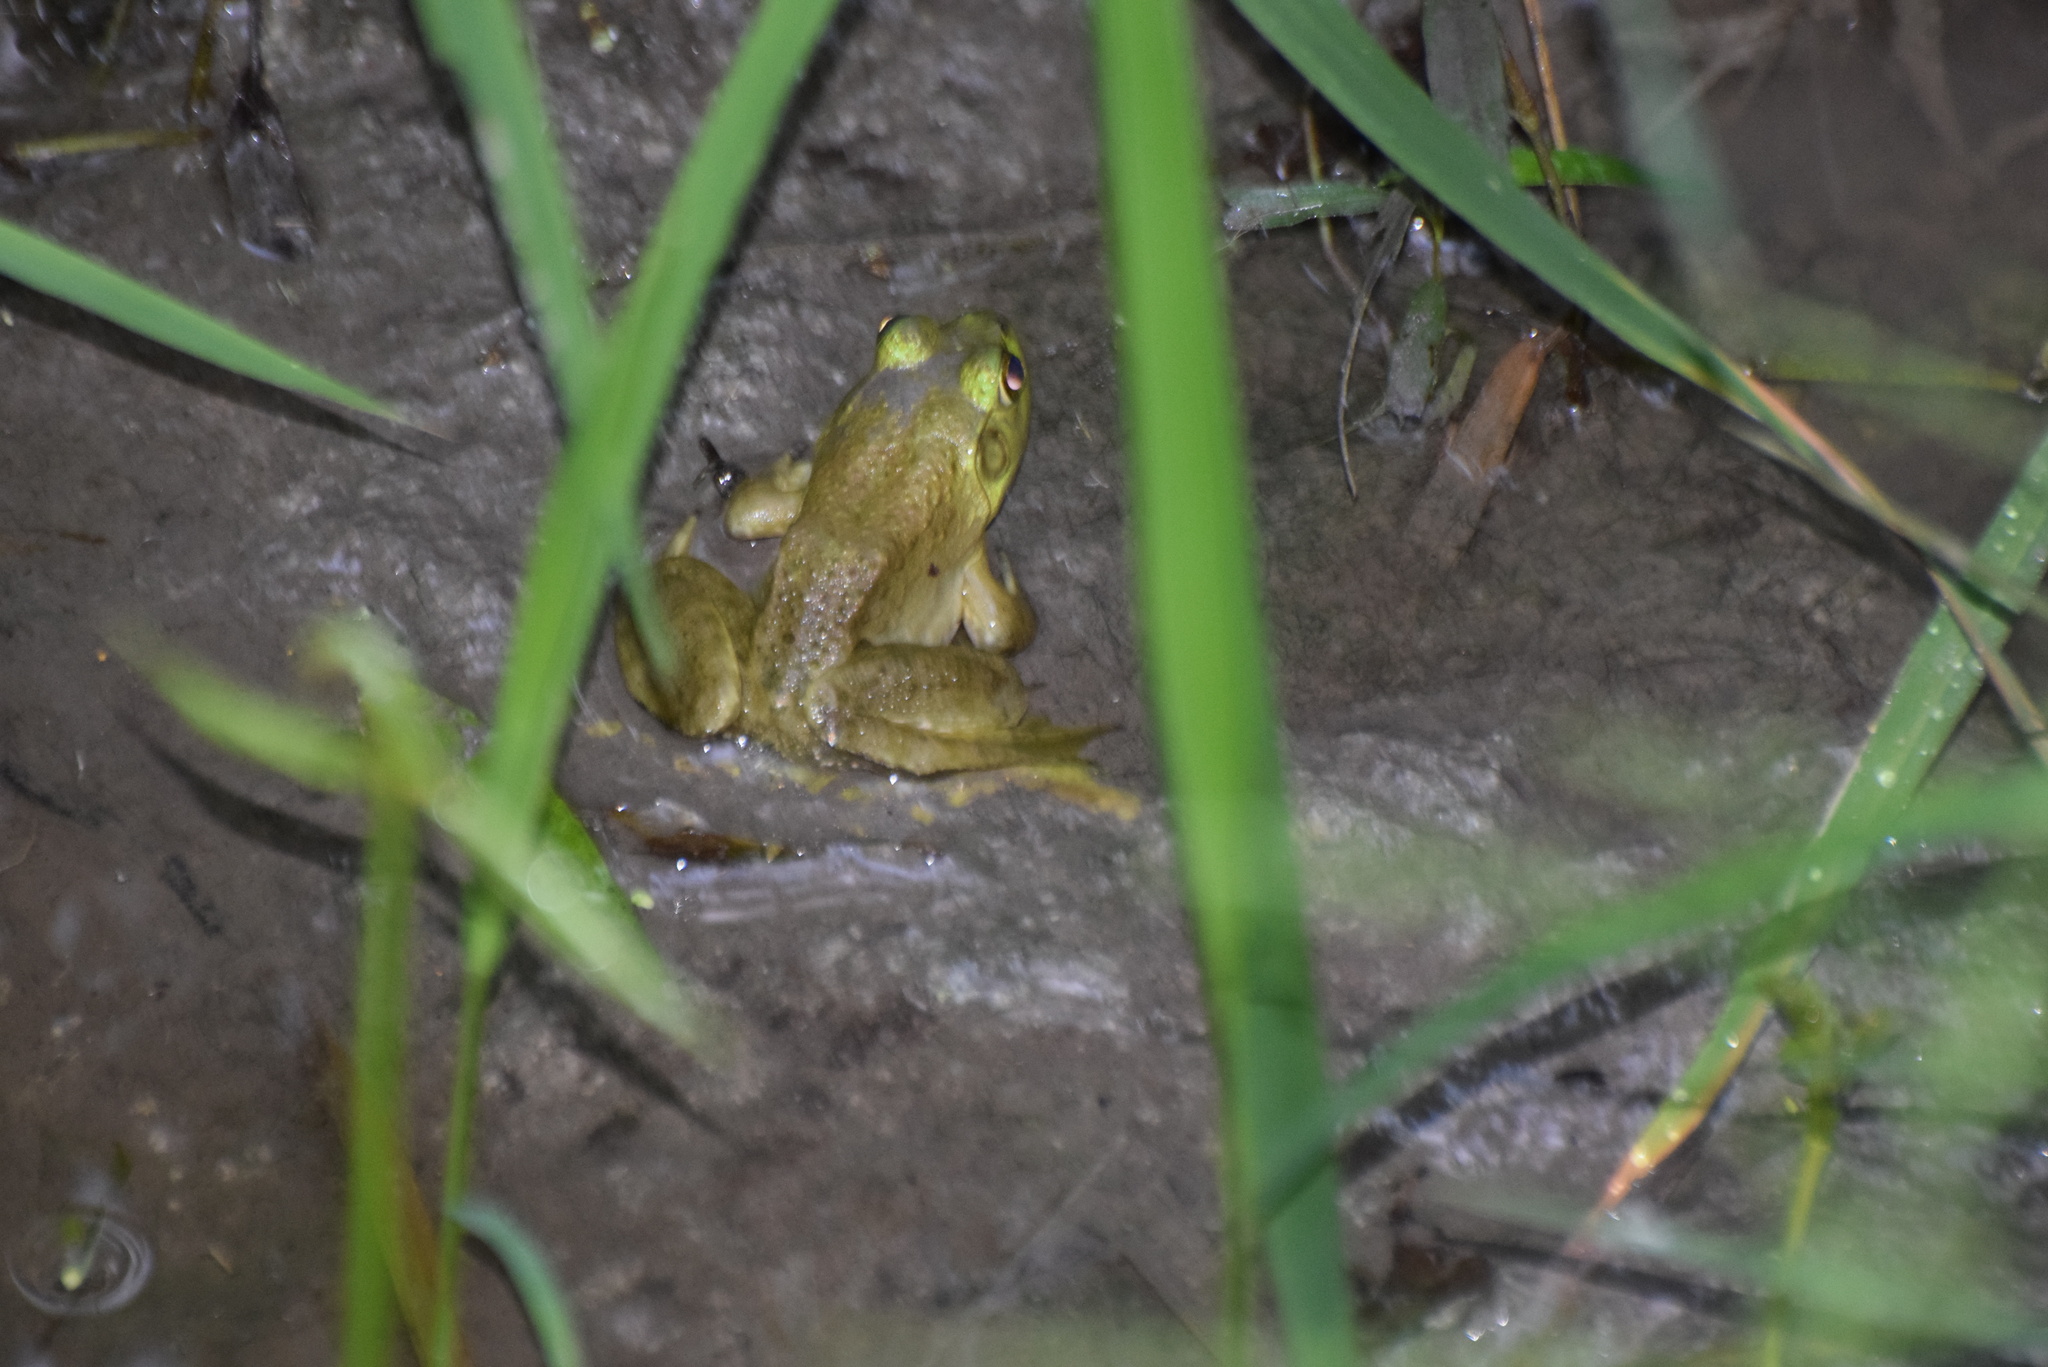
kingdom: Animalia
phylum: Chordata
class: Amphibia
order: Anura
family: Ranidae
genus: Lithobates
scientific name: Lithobates catesbeianus
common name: American bullfrog
